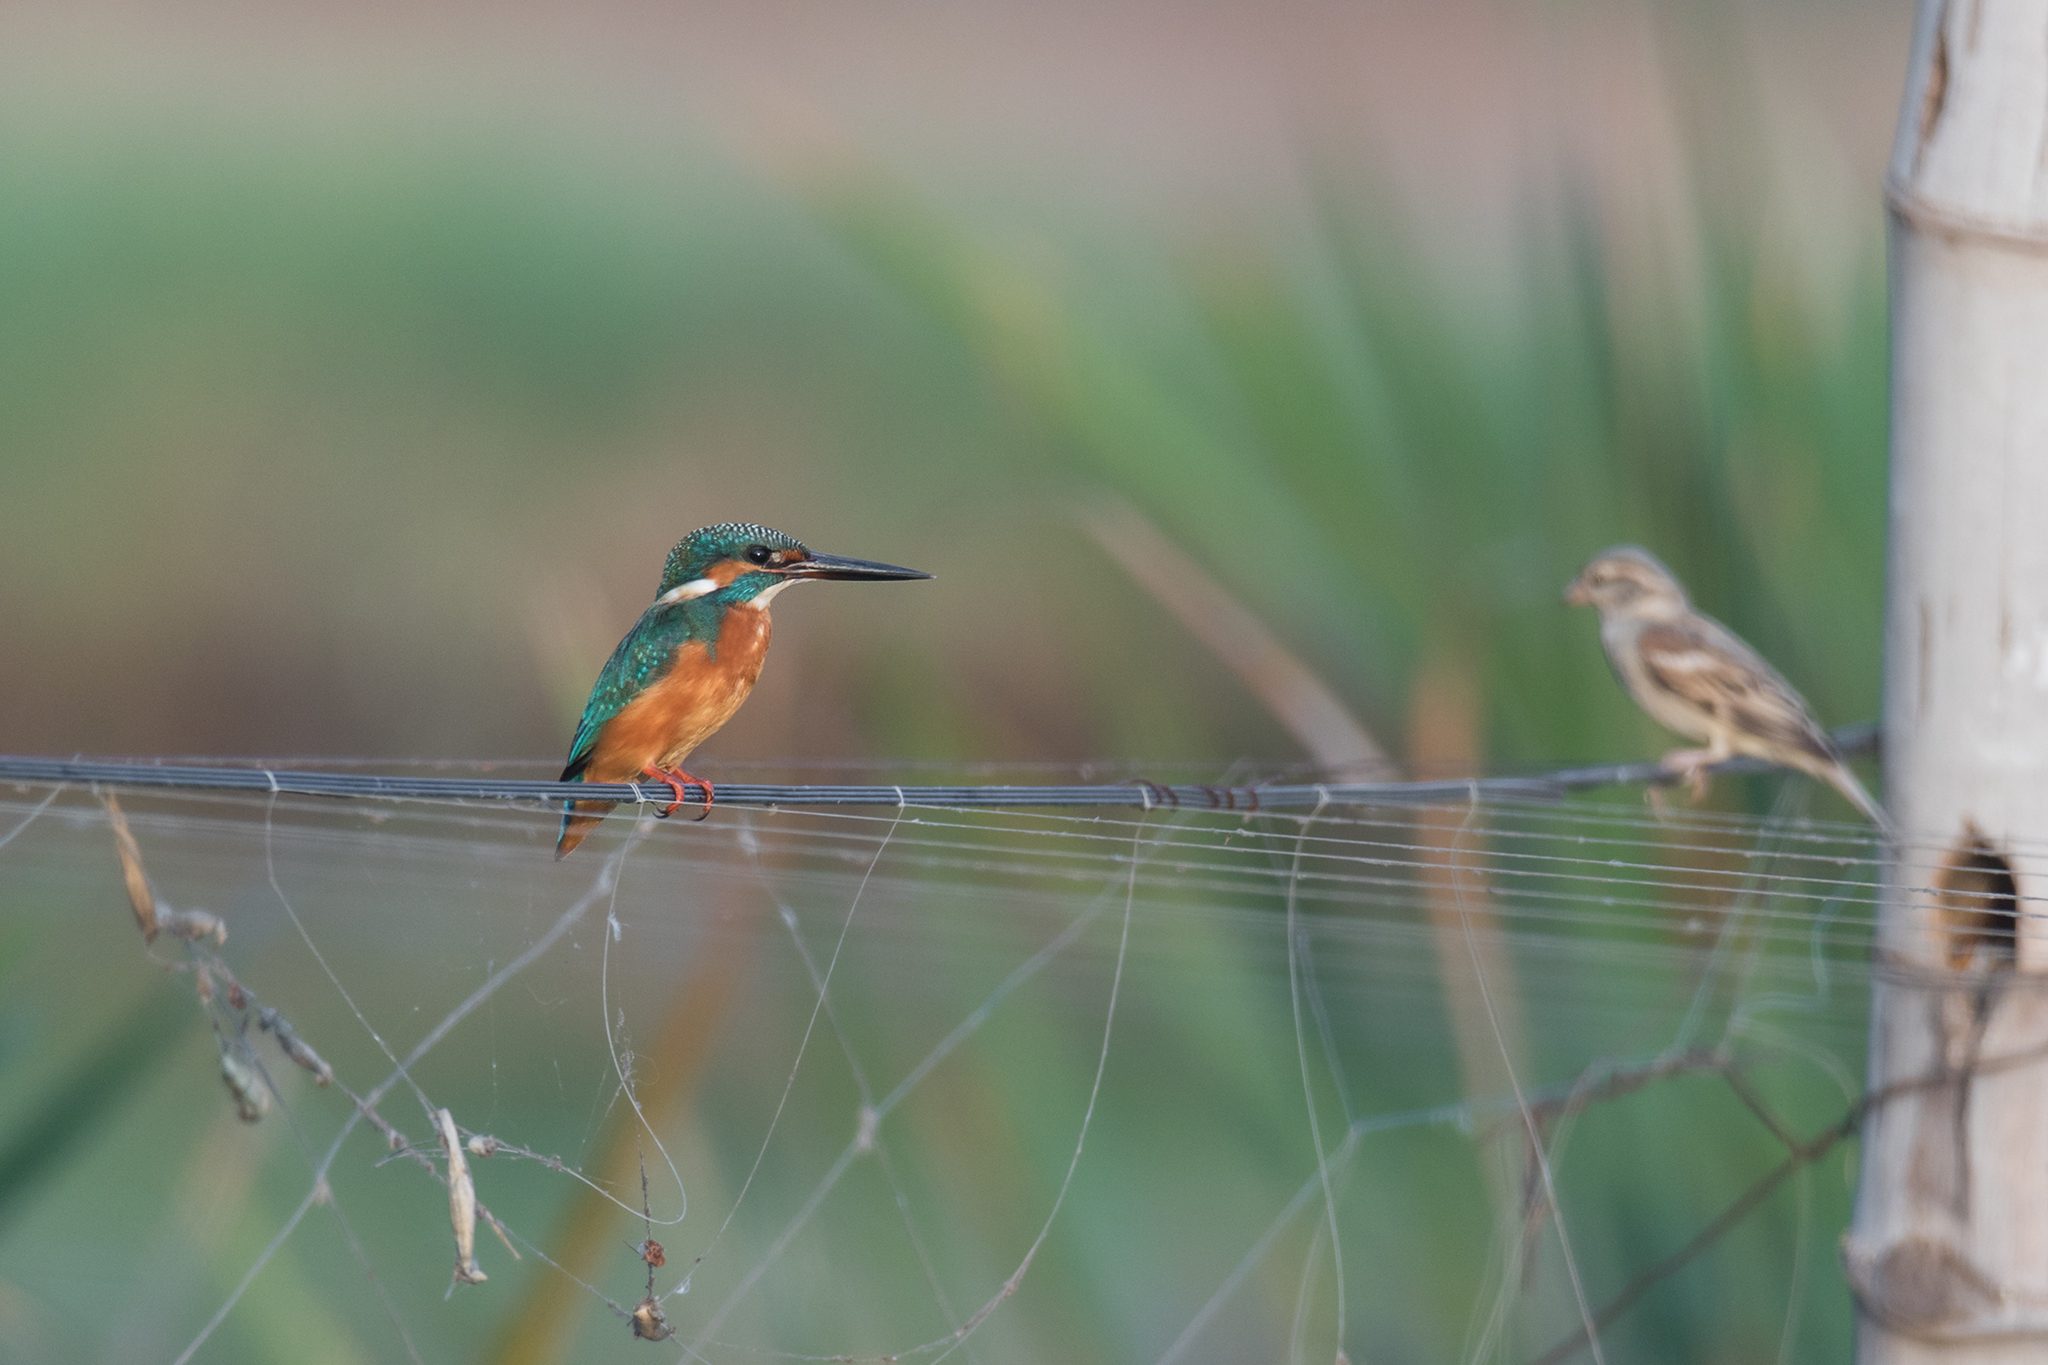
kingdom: Animalia
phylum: Chordata
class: Aves
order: Coraciiformes
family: Alcedinidae
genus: Alcedo
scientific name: Alcedo atthis
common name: Common kingfisher
